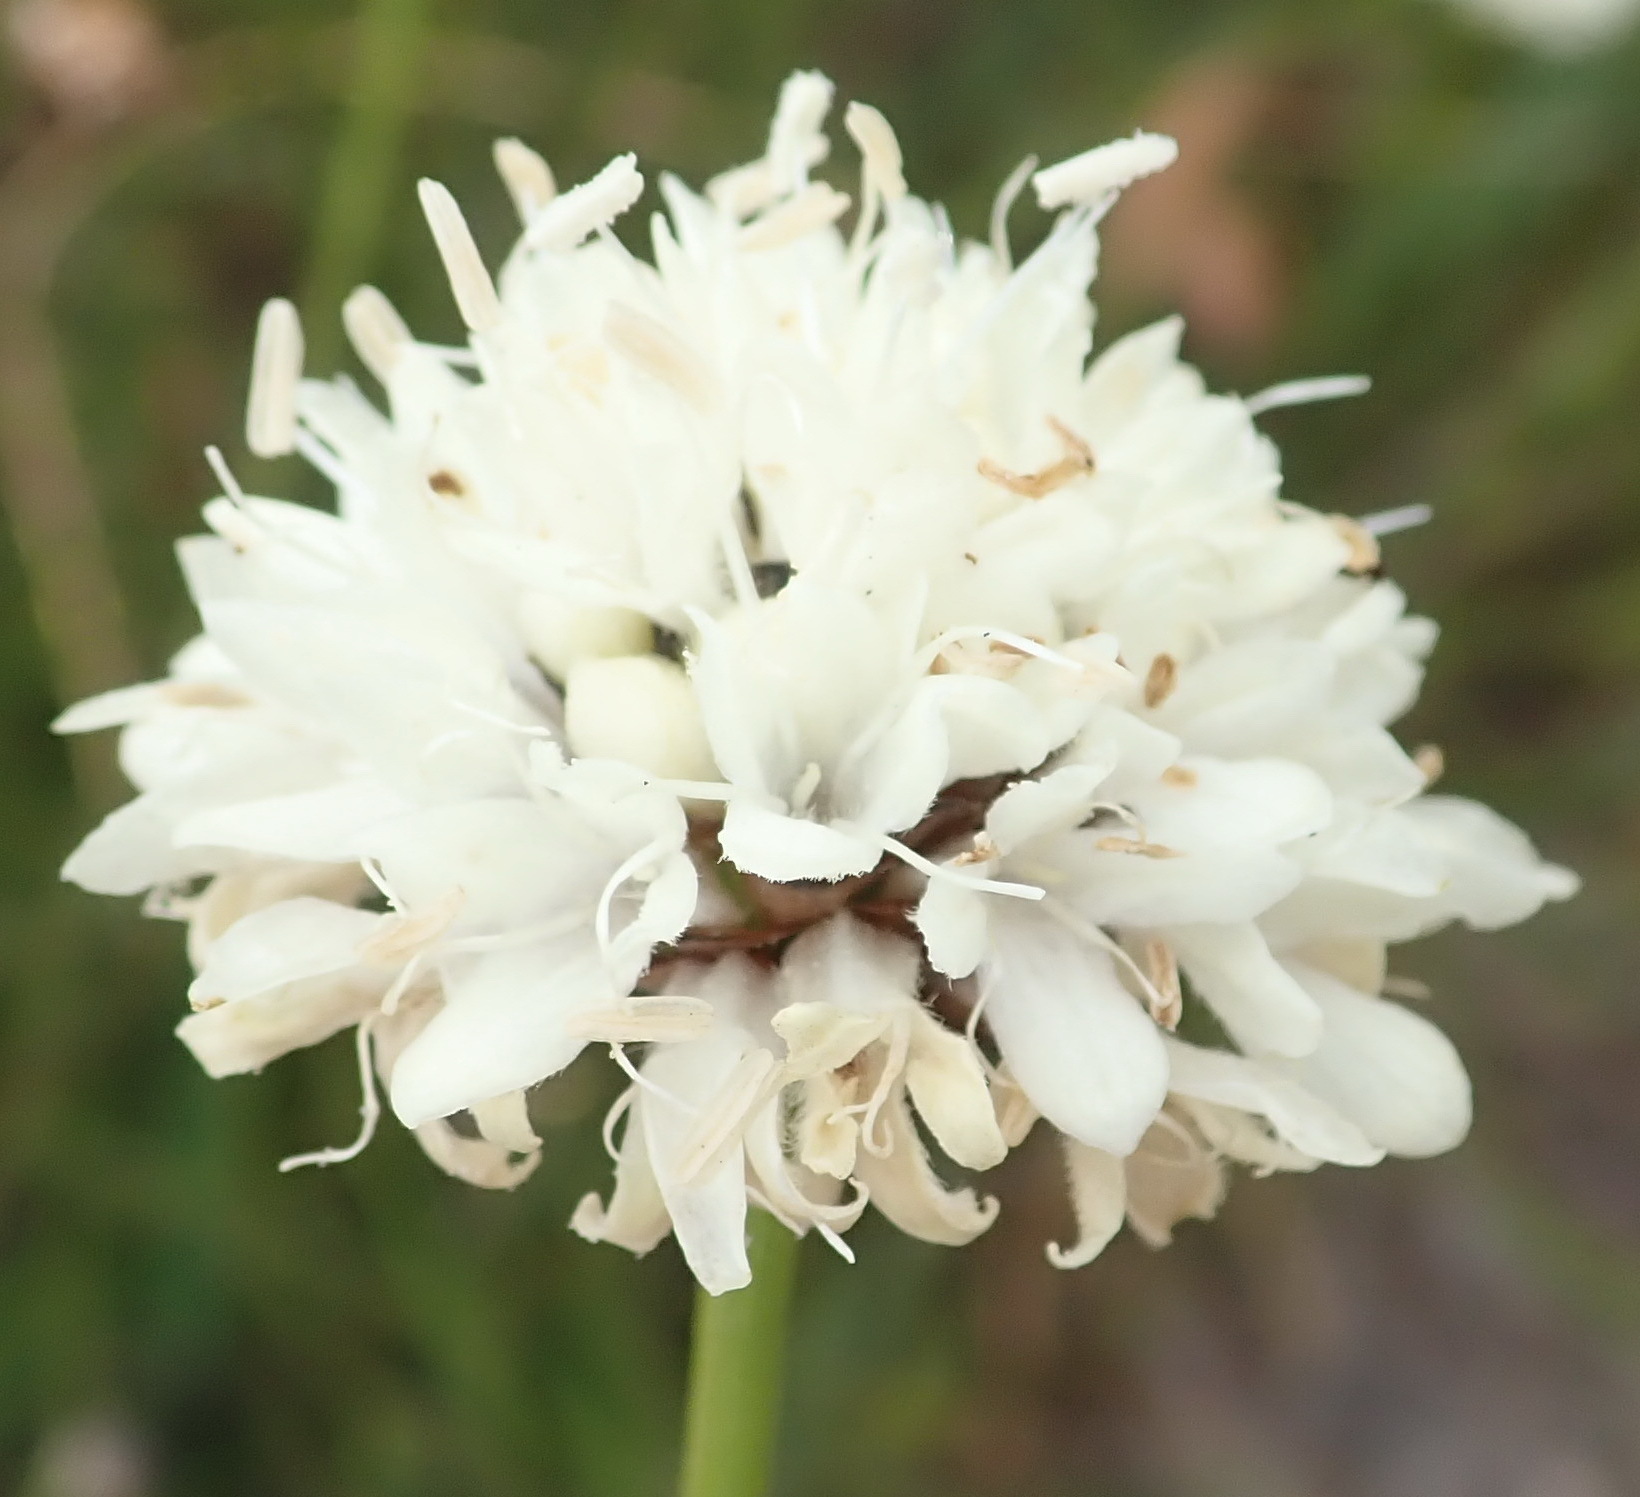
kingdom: Plantae
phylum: Tracheophyta
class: Magnoliopsida
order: Dipsacales
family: Caprifoliaceae
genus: Cephalaria
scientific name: Cephalaria humilis
